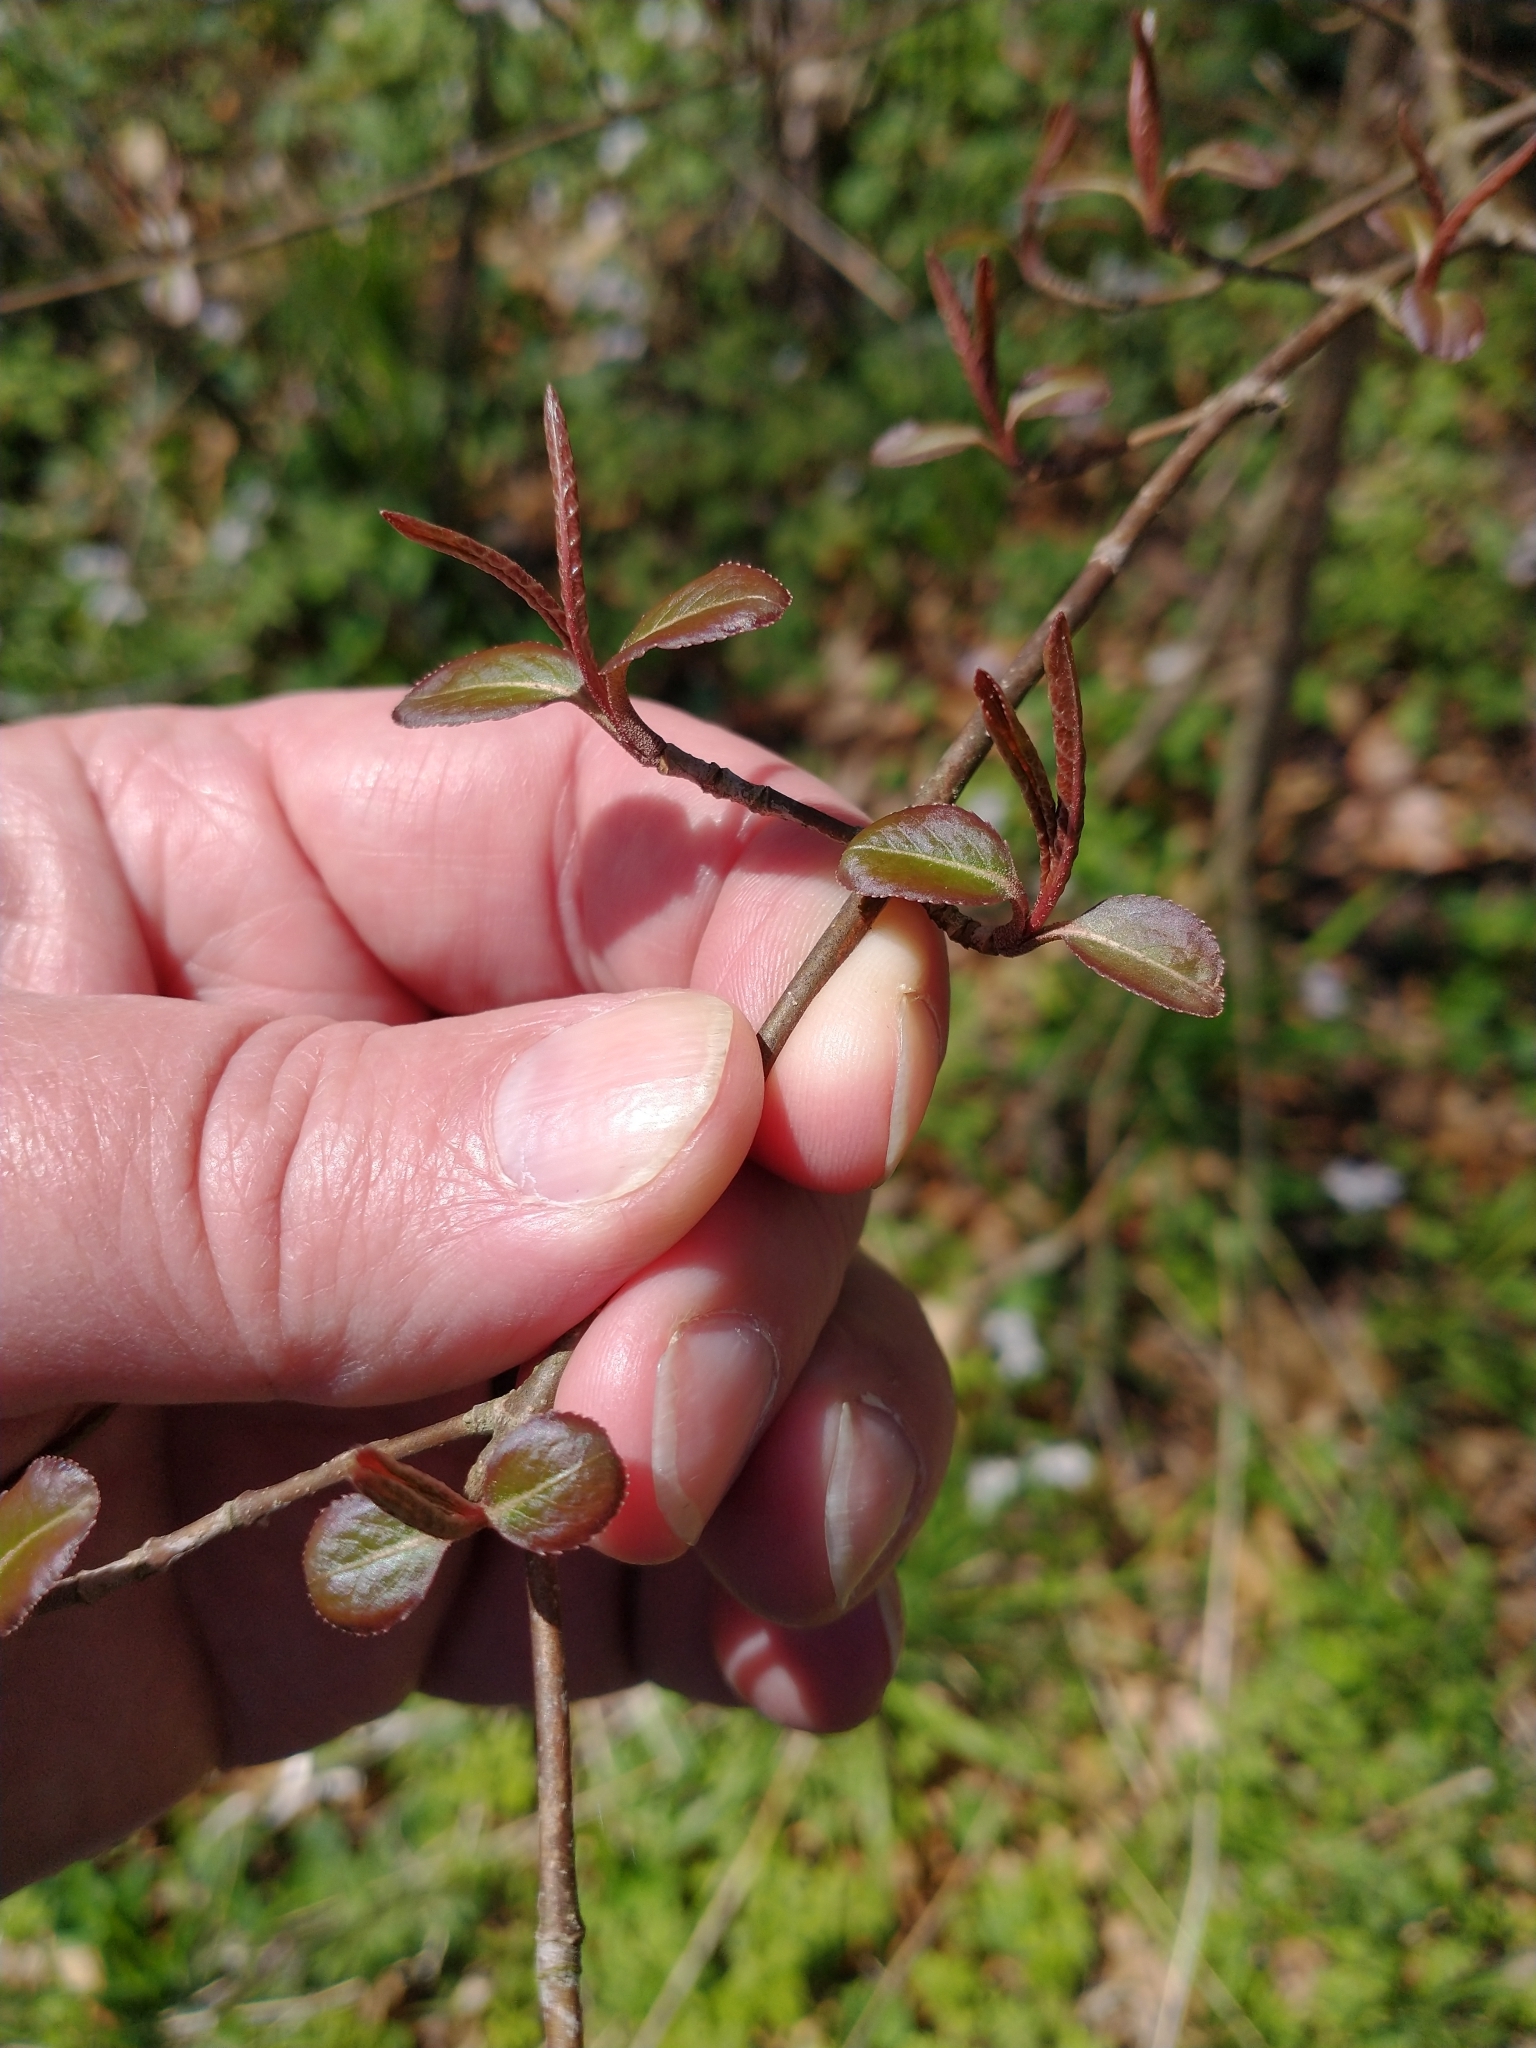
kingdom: Plantae
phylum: Tracheophyta
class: Magnoliopsida
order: Dipsacales
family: Viburnaceae
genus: Viburnum
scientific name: Viburnum prunifolium
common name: Black haw
